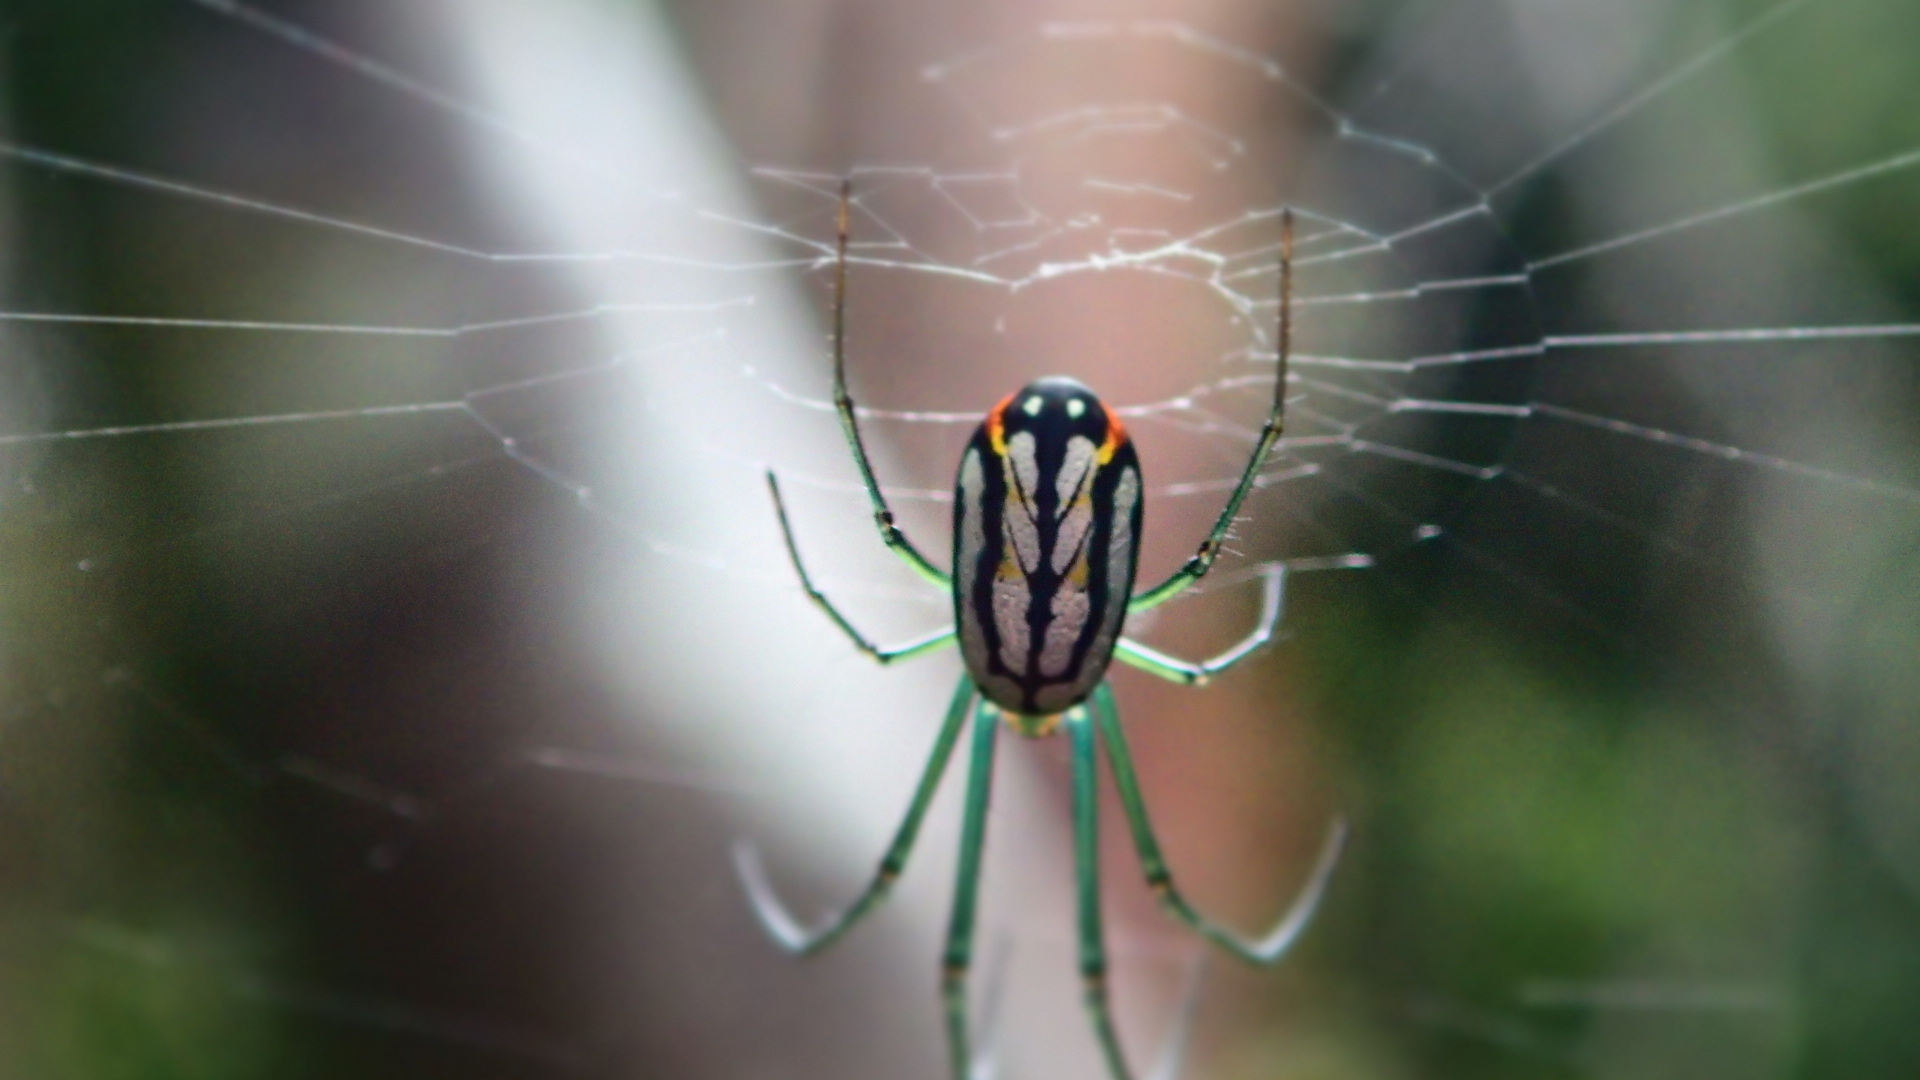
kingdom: Animalia
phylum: Arthropoda
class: Arachnida
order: Araneae
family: Tetragnathidae
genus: Leucauge
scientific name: Leucauge argyrobapta
